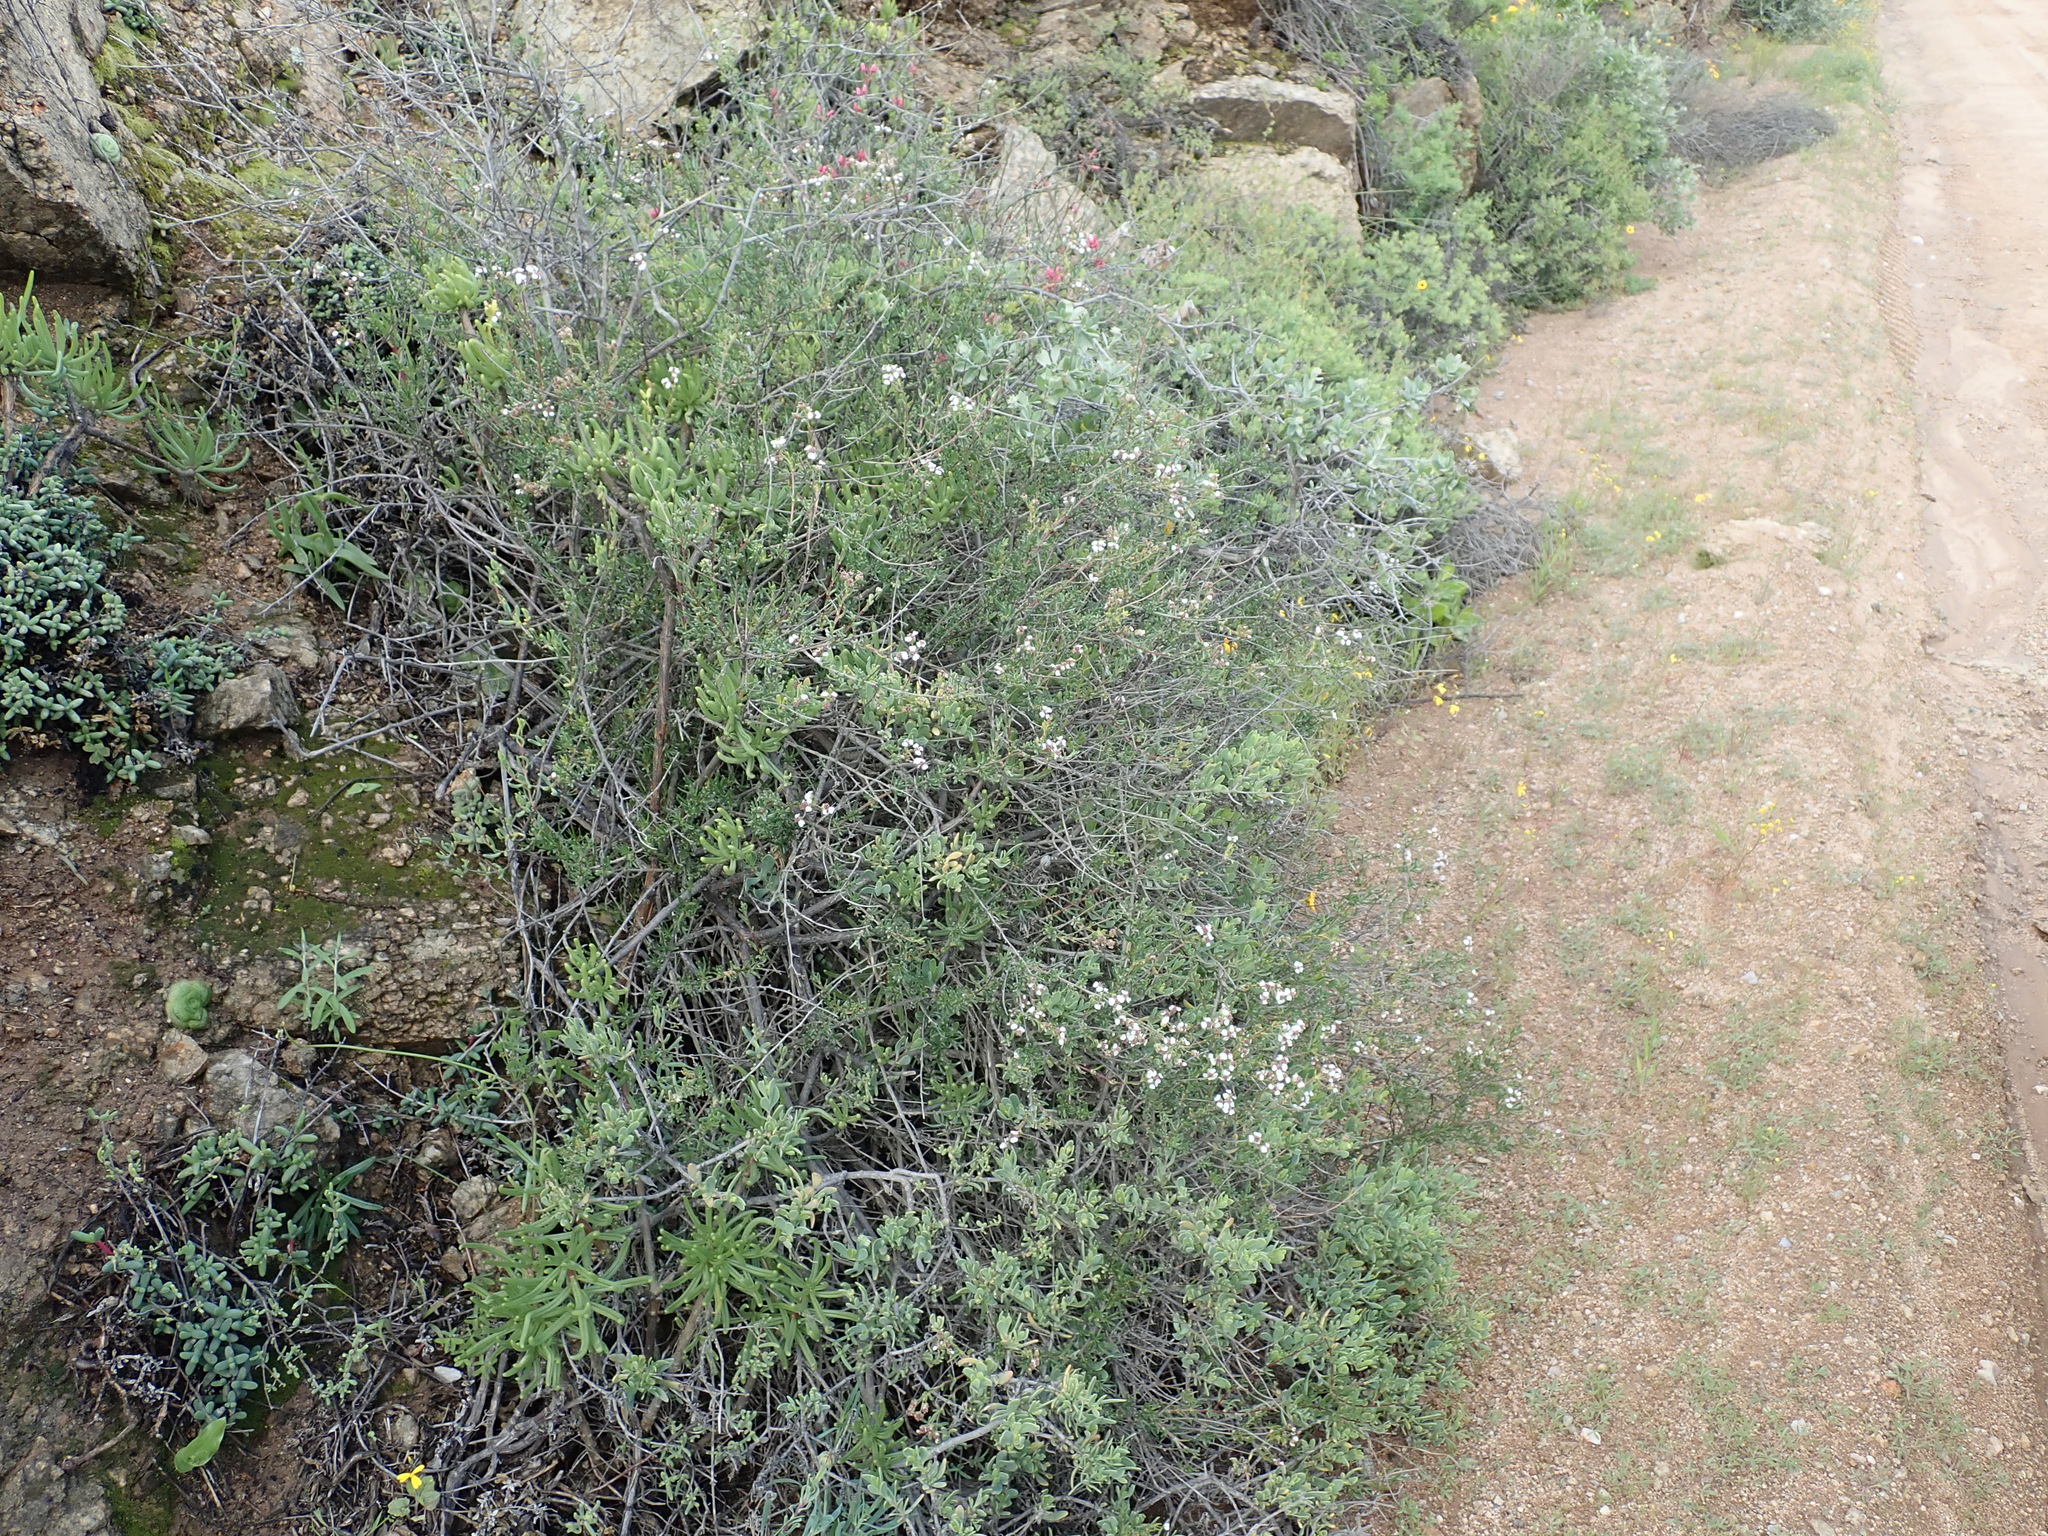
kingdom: Plantae
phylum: Tracheophyta
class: Magnoliopsida
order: Asterales
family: Asteraceae
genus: Eriocephalus
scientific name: Eriocephalus punctulatus
